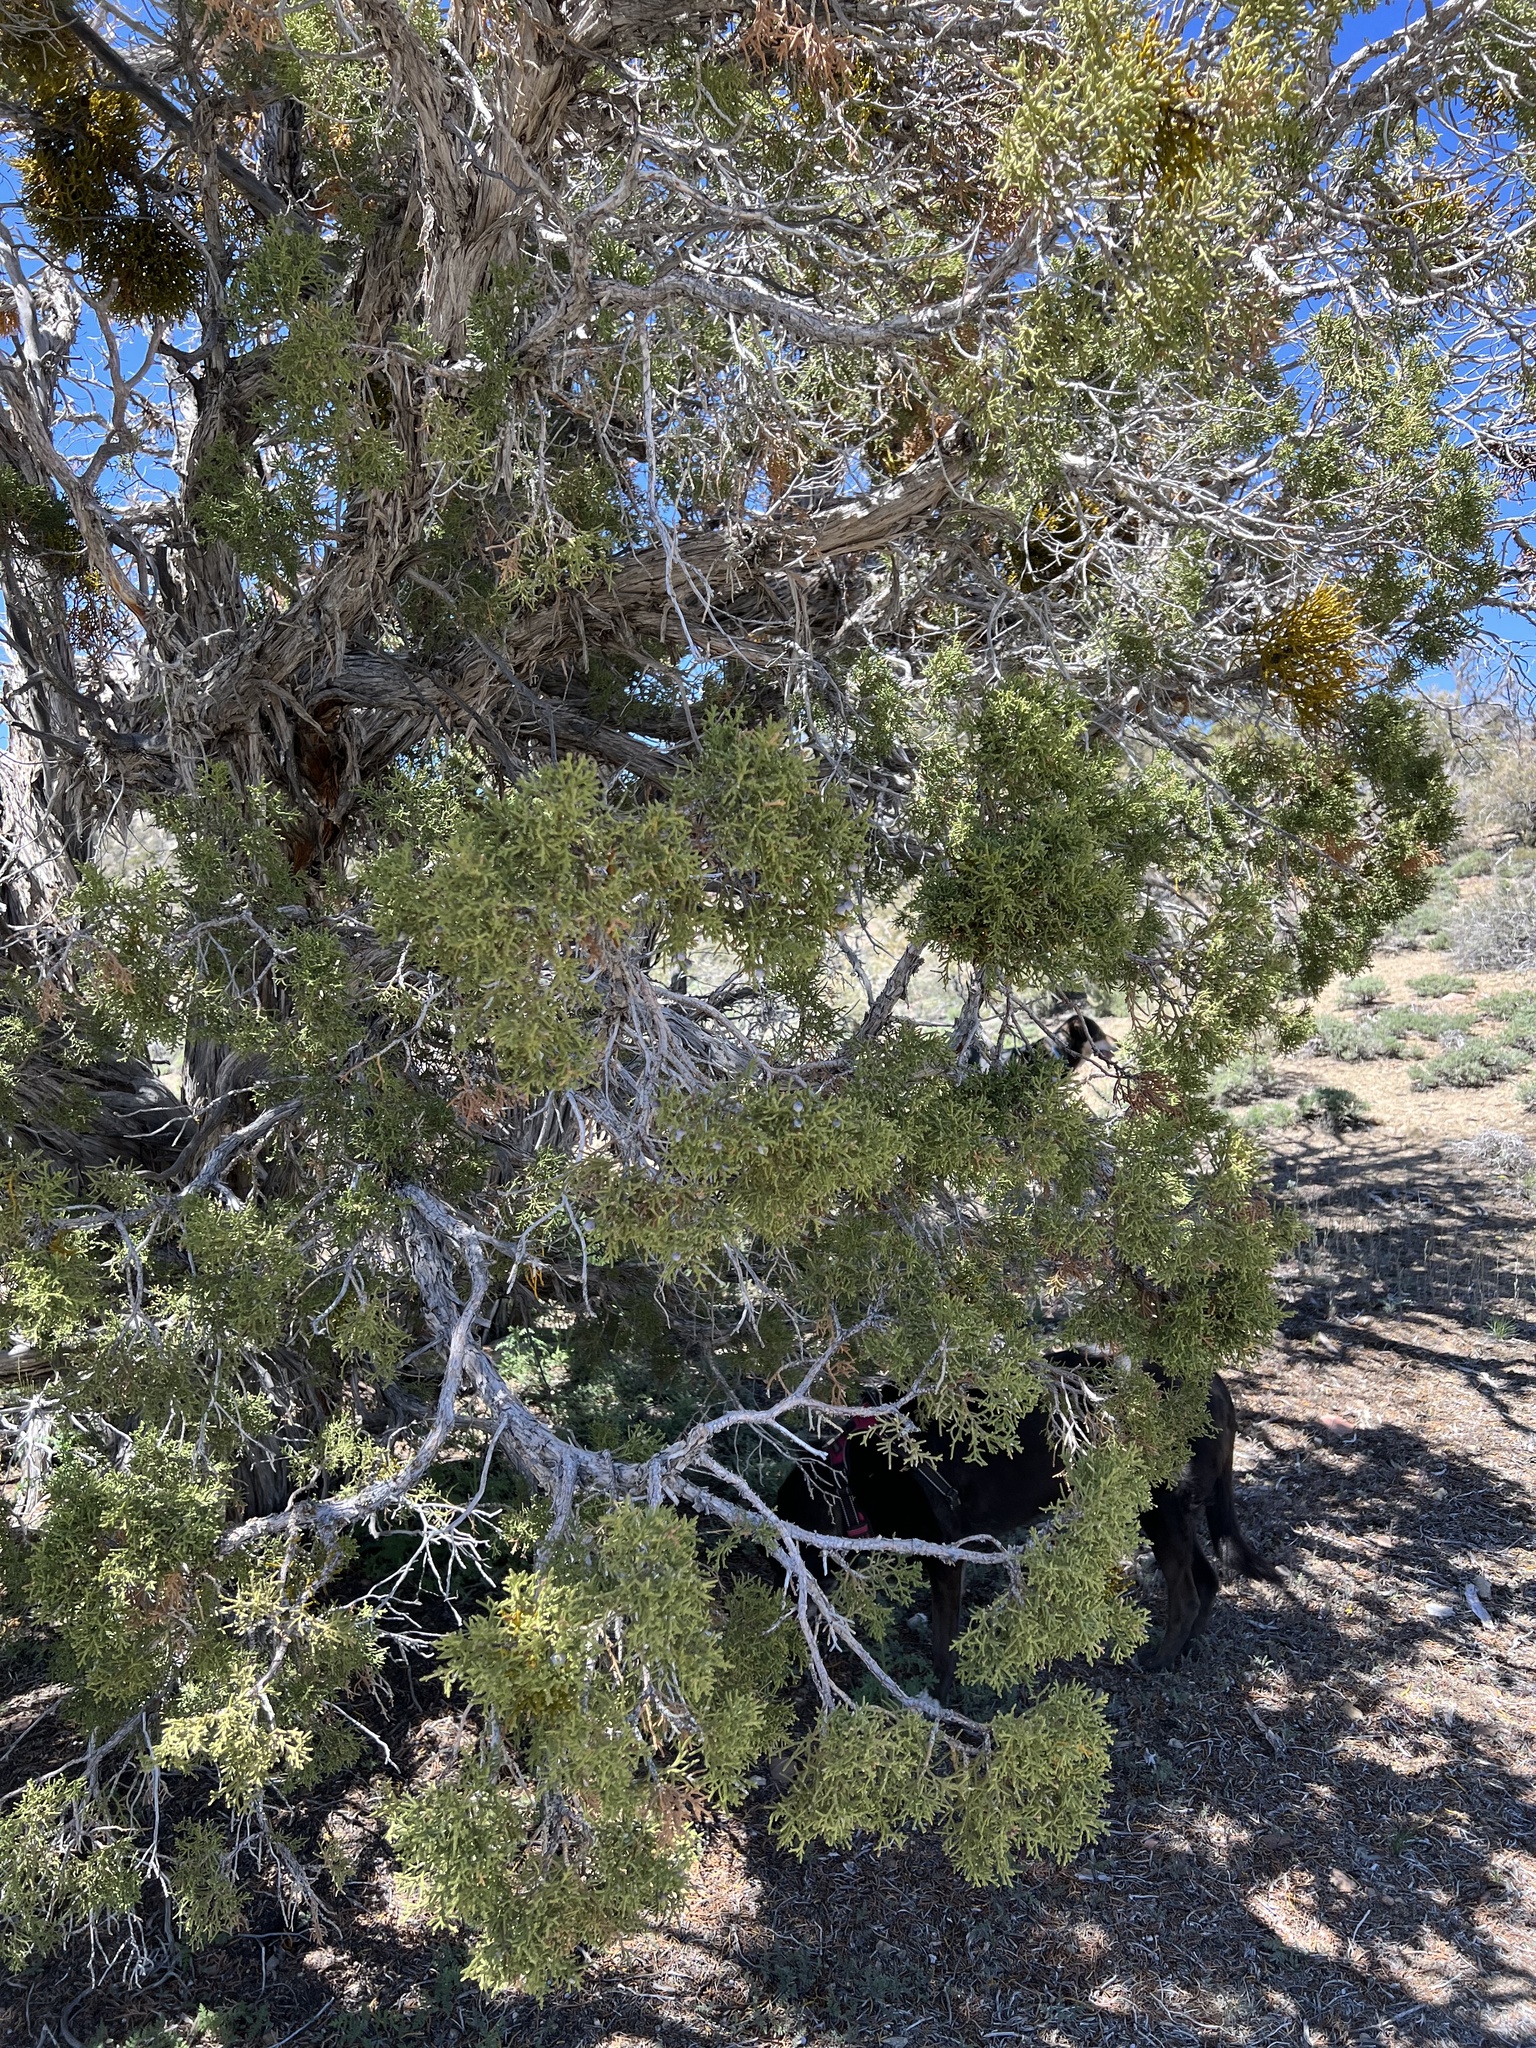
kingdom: Plantae
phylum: Tracheophyta
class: Pinopsida
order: Pinales
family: Cupressaceae
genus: Juniperus
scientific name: Juniperus osteosperma
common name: Utah juniper
